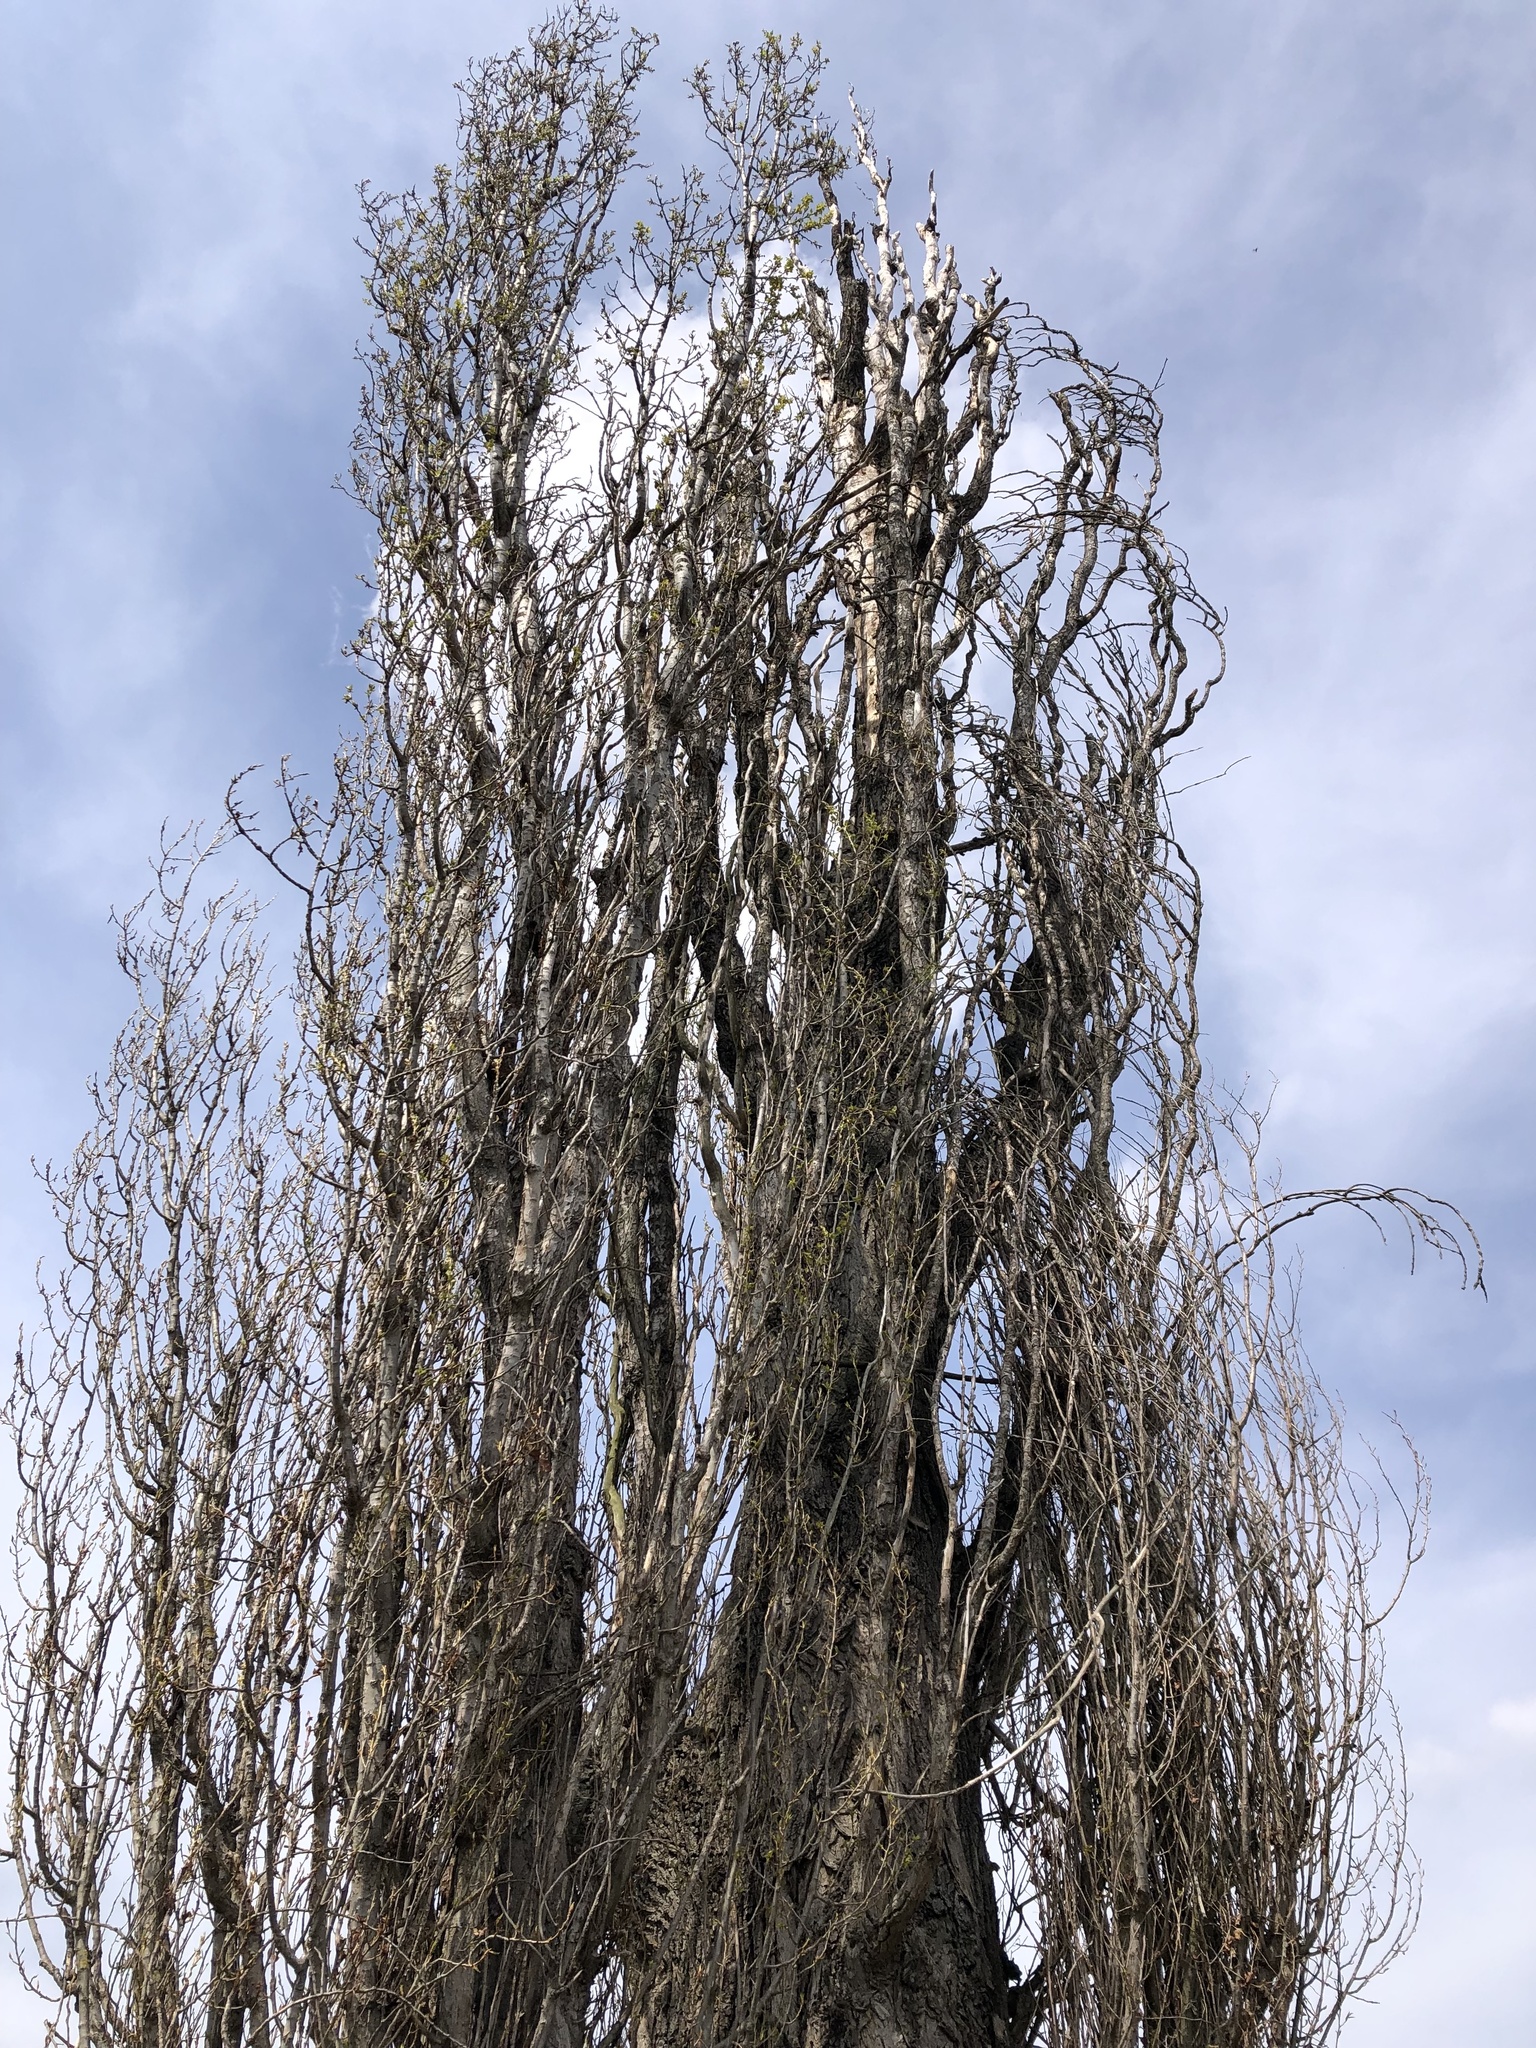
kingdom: Plantae
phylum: Tracheophyta
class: Magnoliopsida
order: Malpighiales
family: Salicaceae
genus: Populus
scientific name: Populus nigra
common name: Black poplar
